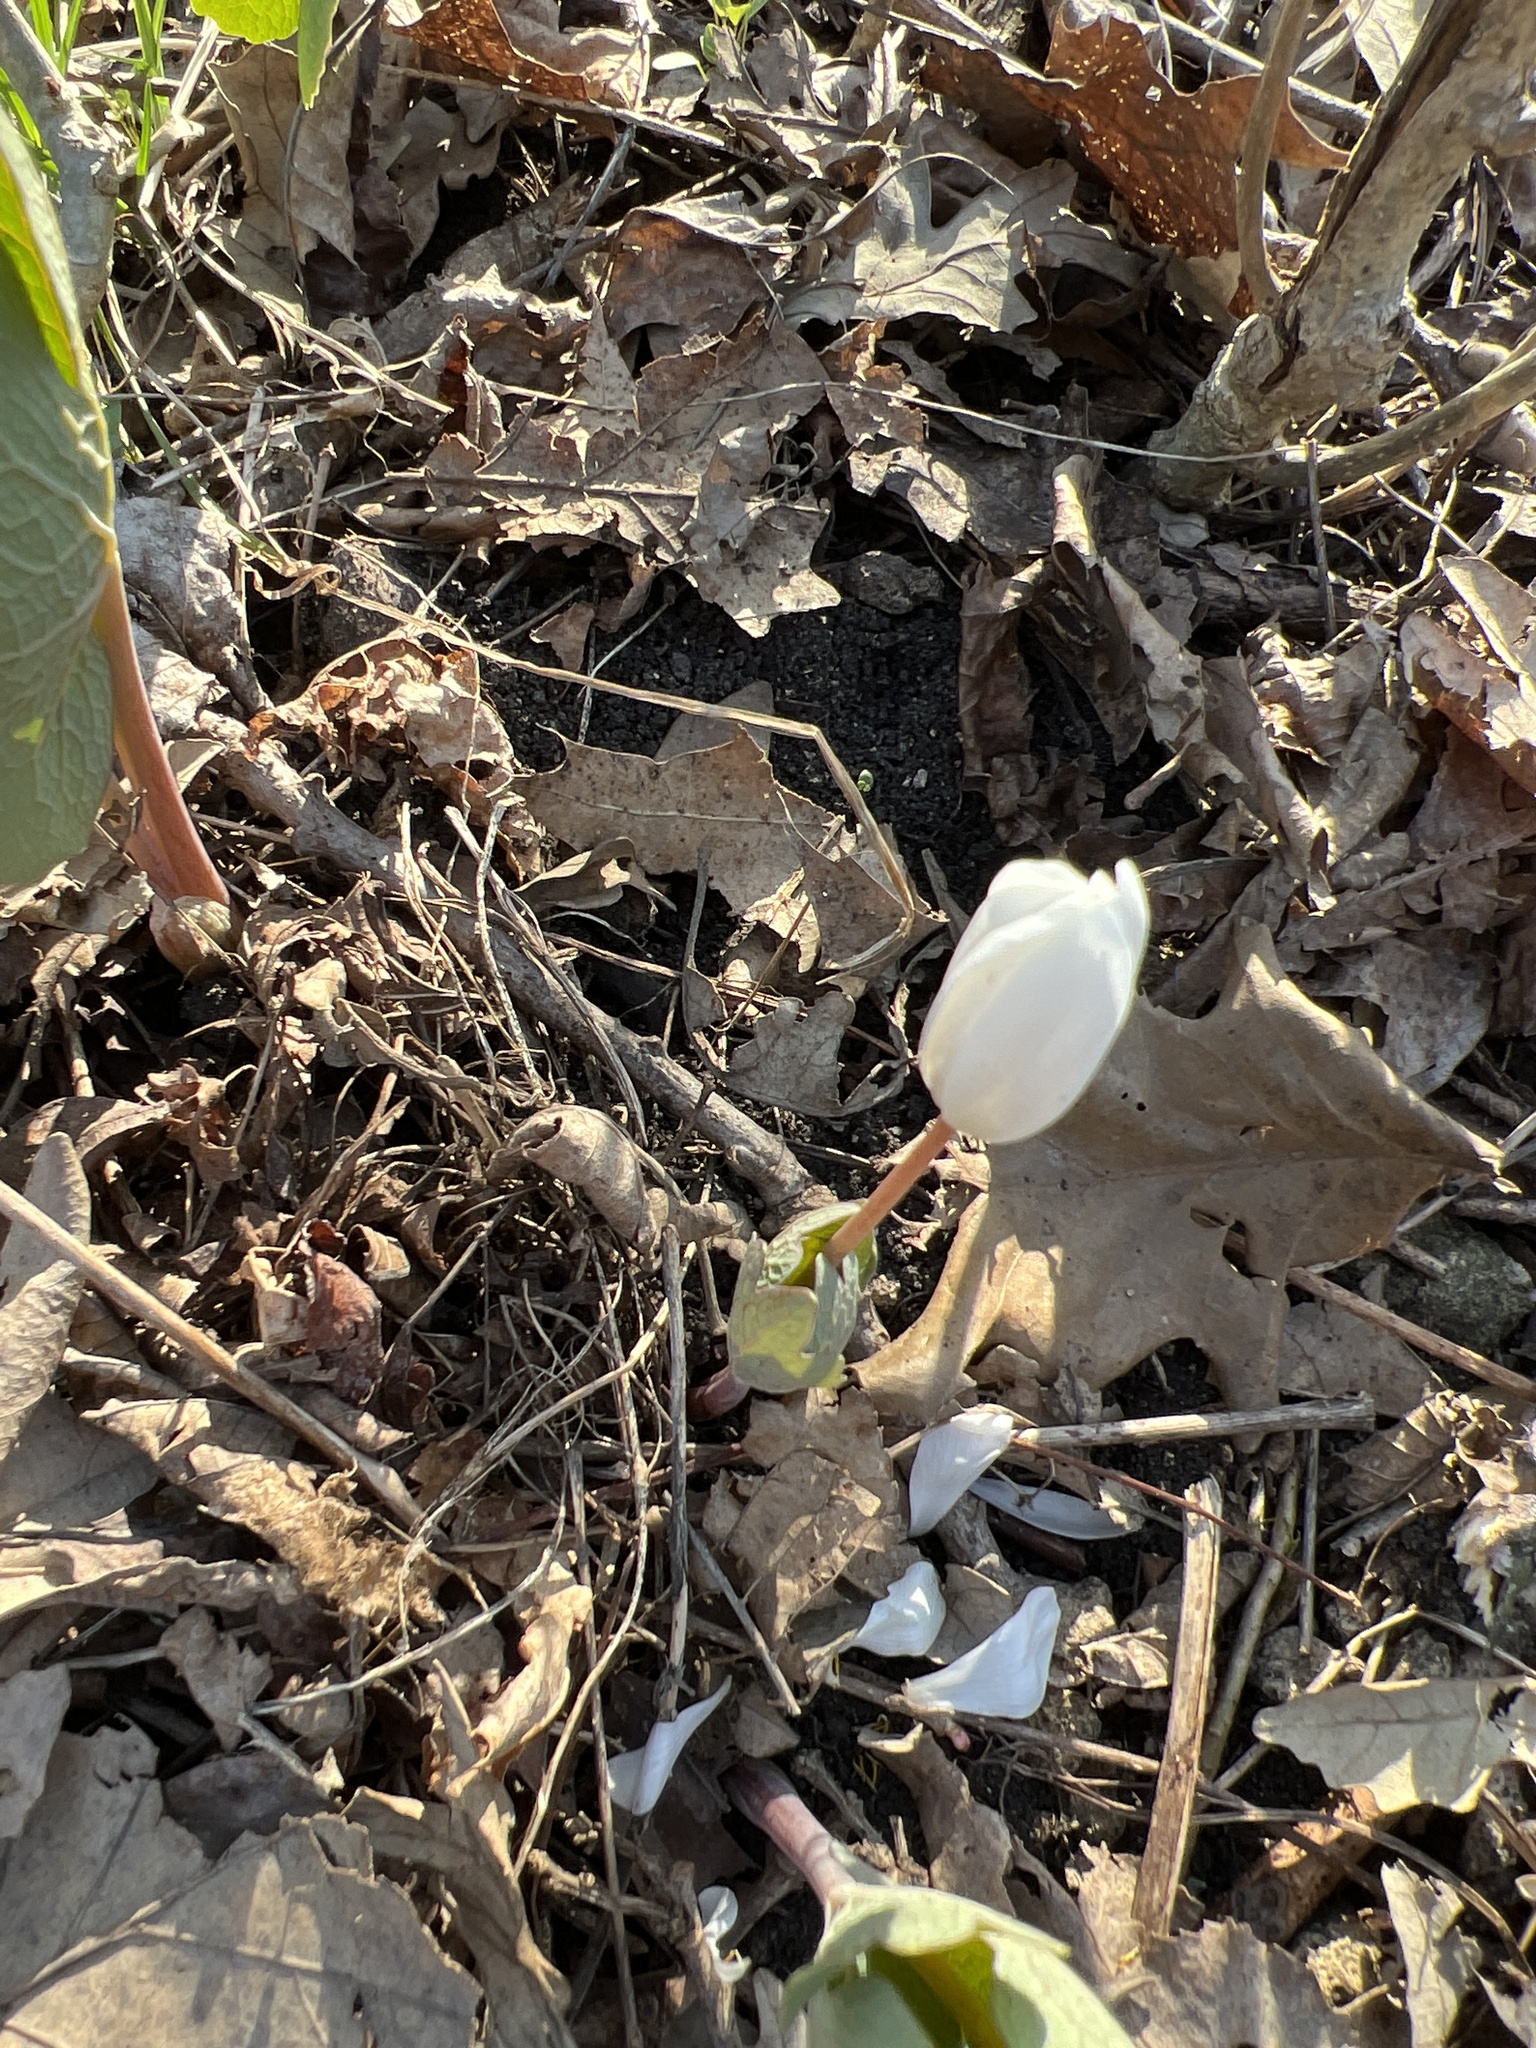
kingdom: Plantae
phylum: Tracheophyta
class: Magnoliopsida
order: Ranunculales
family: Papaveraceae
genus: Sanguinaria
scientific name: Sanguinaria canadensis
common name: Bloodroot
